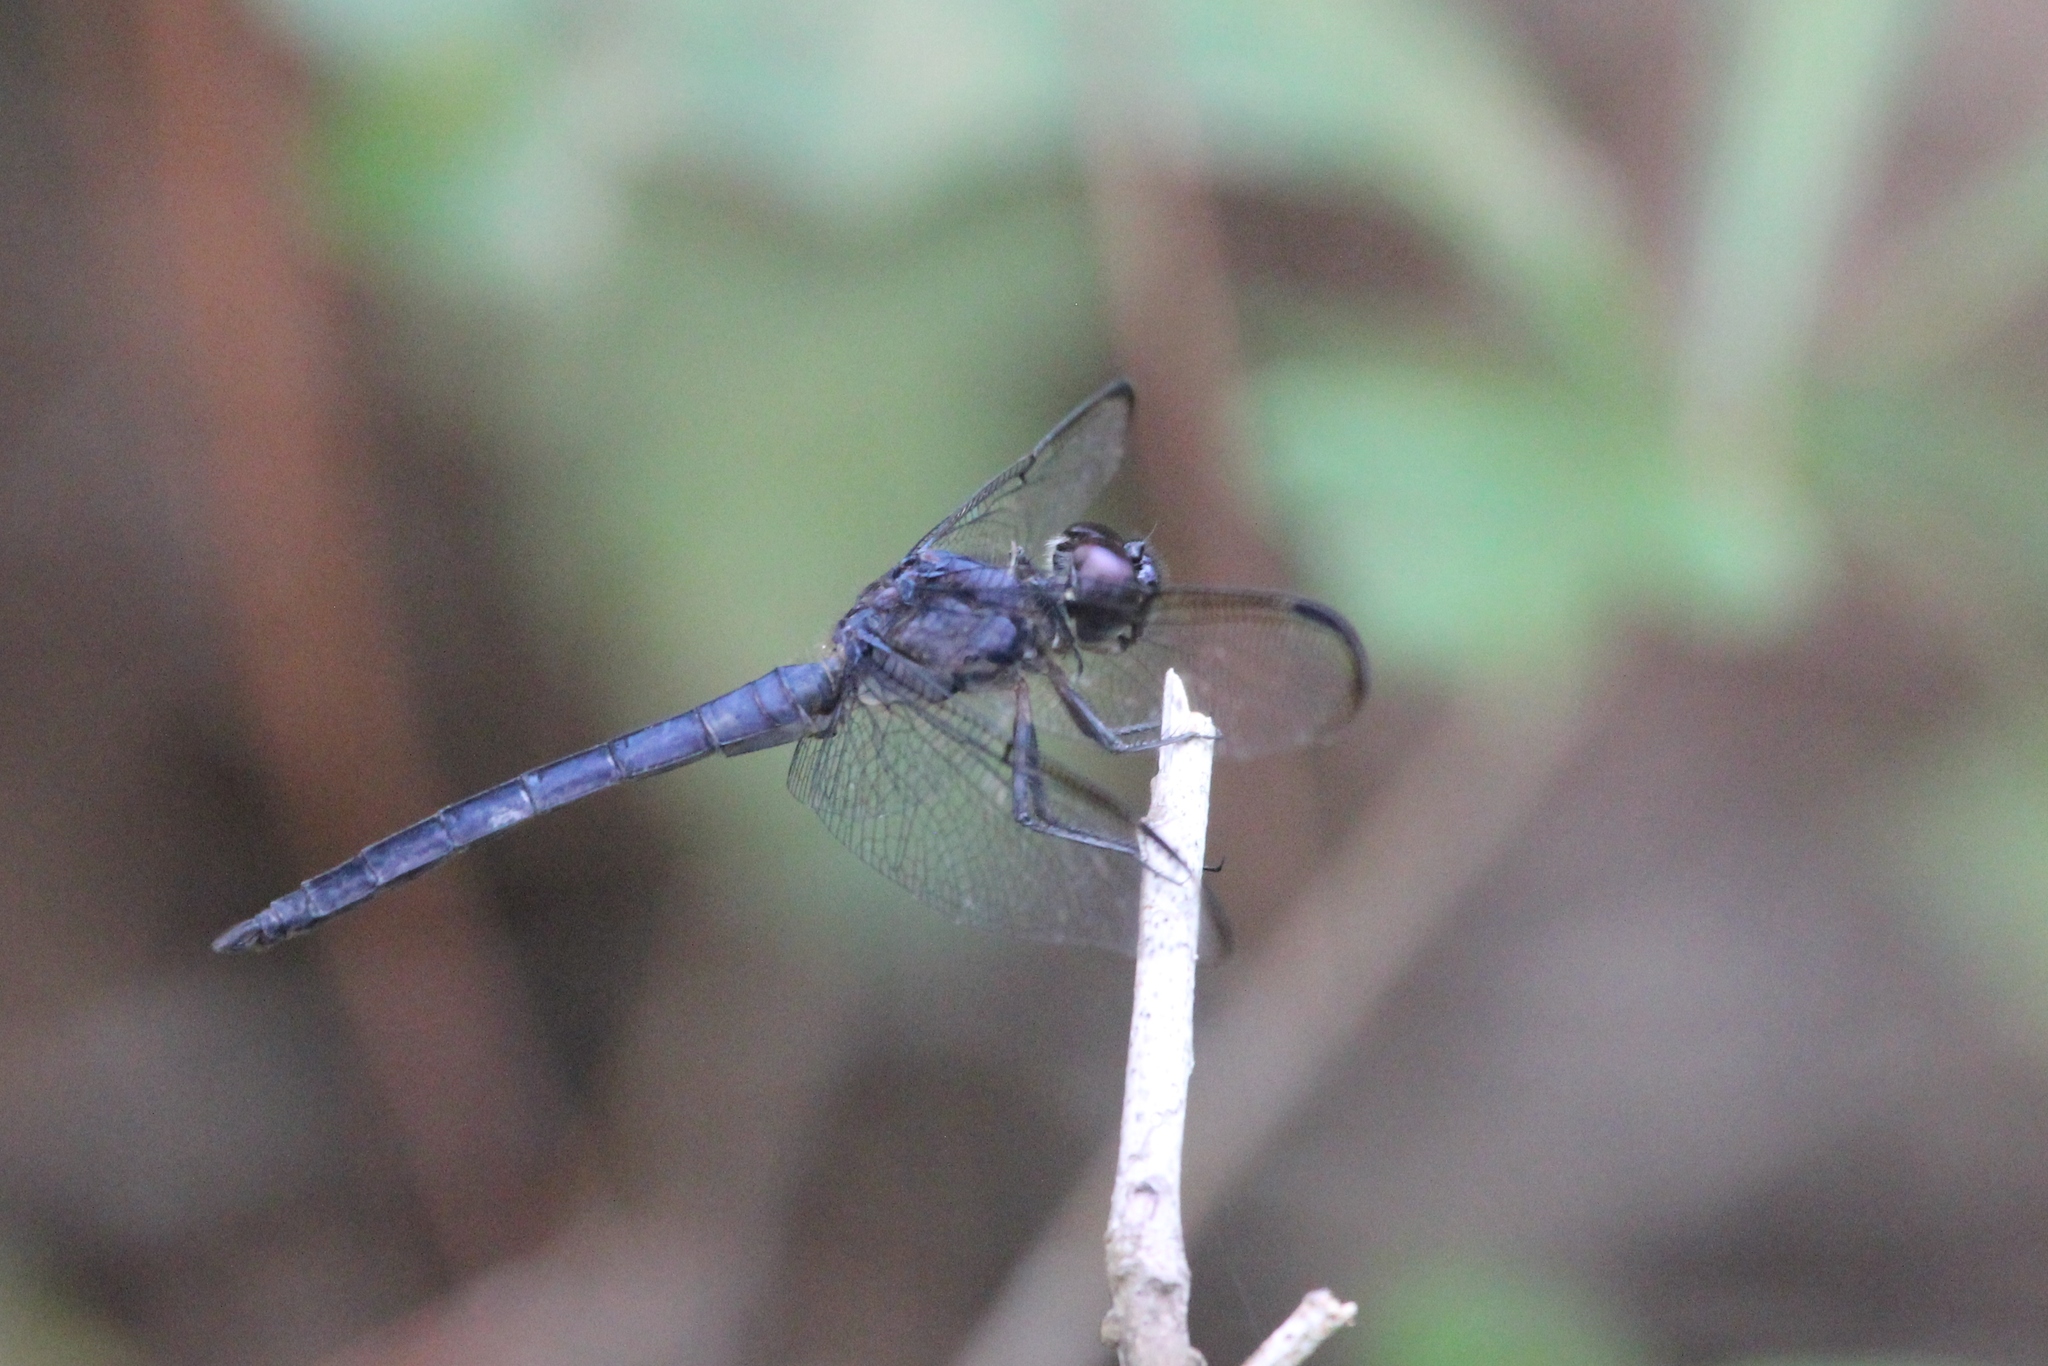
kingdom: Animalia
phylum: Arthropoda
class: Insecta
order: Odonata
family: Libellulidae
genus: Libellula
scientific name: Libellula incesta
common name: Slaty skimmer
